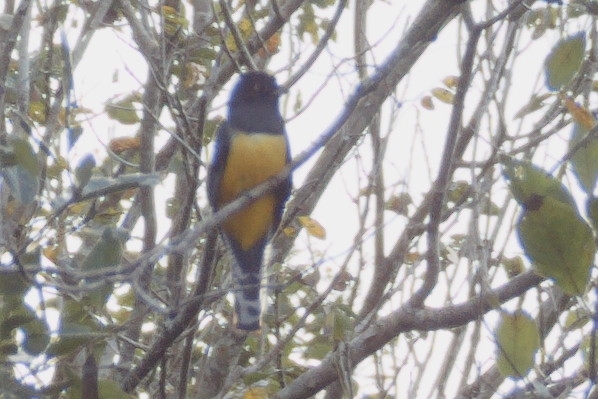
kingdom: Animalia
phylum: Chordata
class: Aves
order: Trogoniformes
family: Trogonidae
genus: Trogon
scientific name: Trogon caligatus
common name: Gartered trogon
